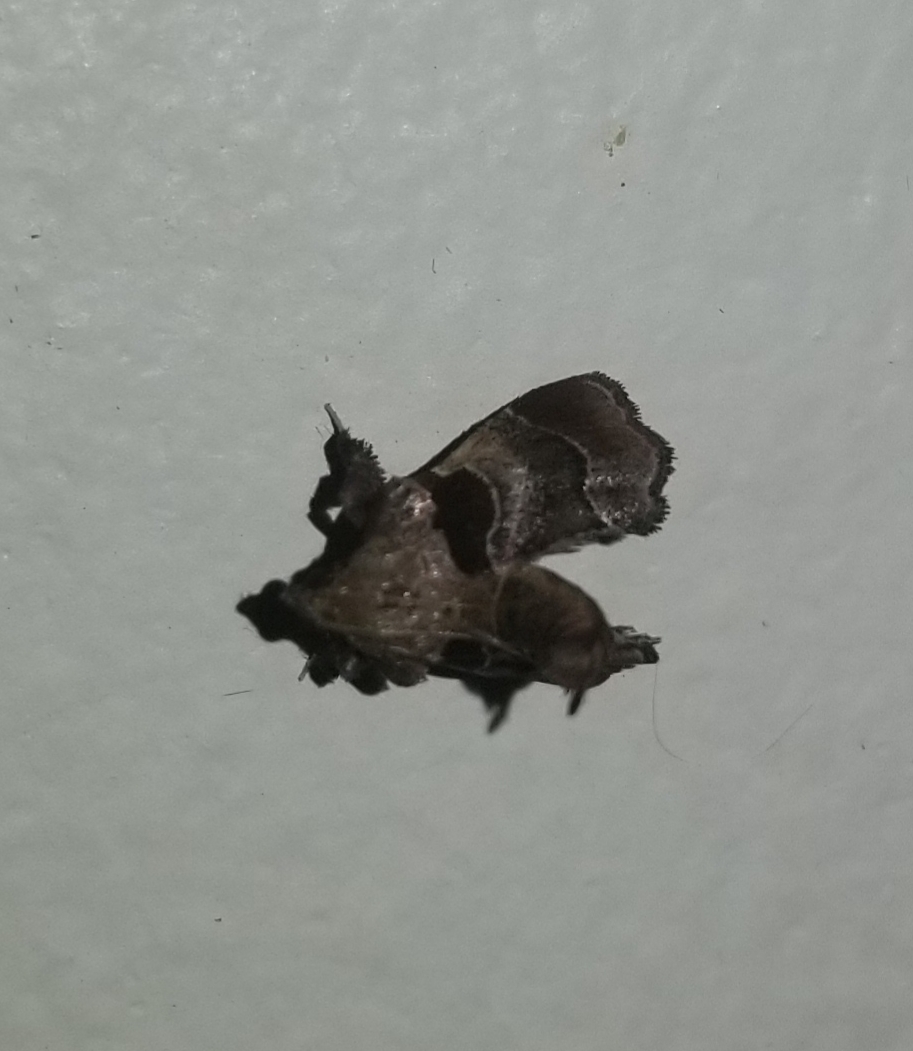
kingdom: Animalia
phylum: Arthropoda
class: Insecta
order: Lepidoptera
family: Pyralidae
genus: Tosale
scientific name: Tosale oviplagalis
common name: Dimorphic tosale moth
